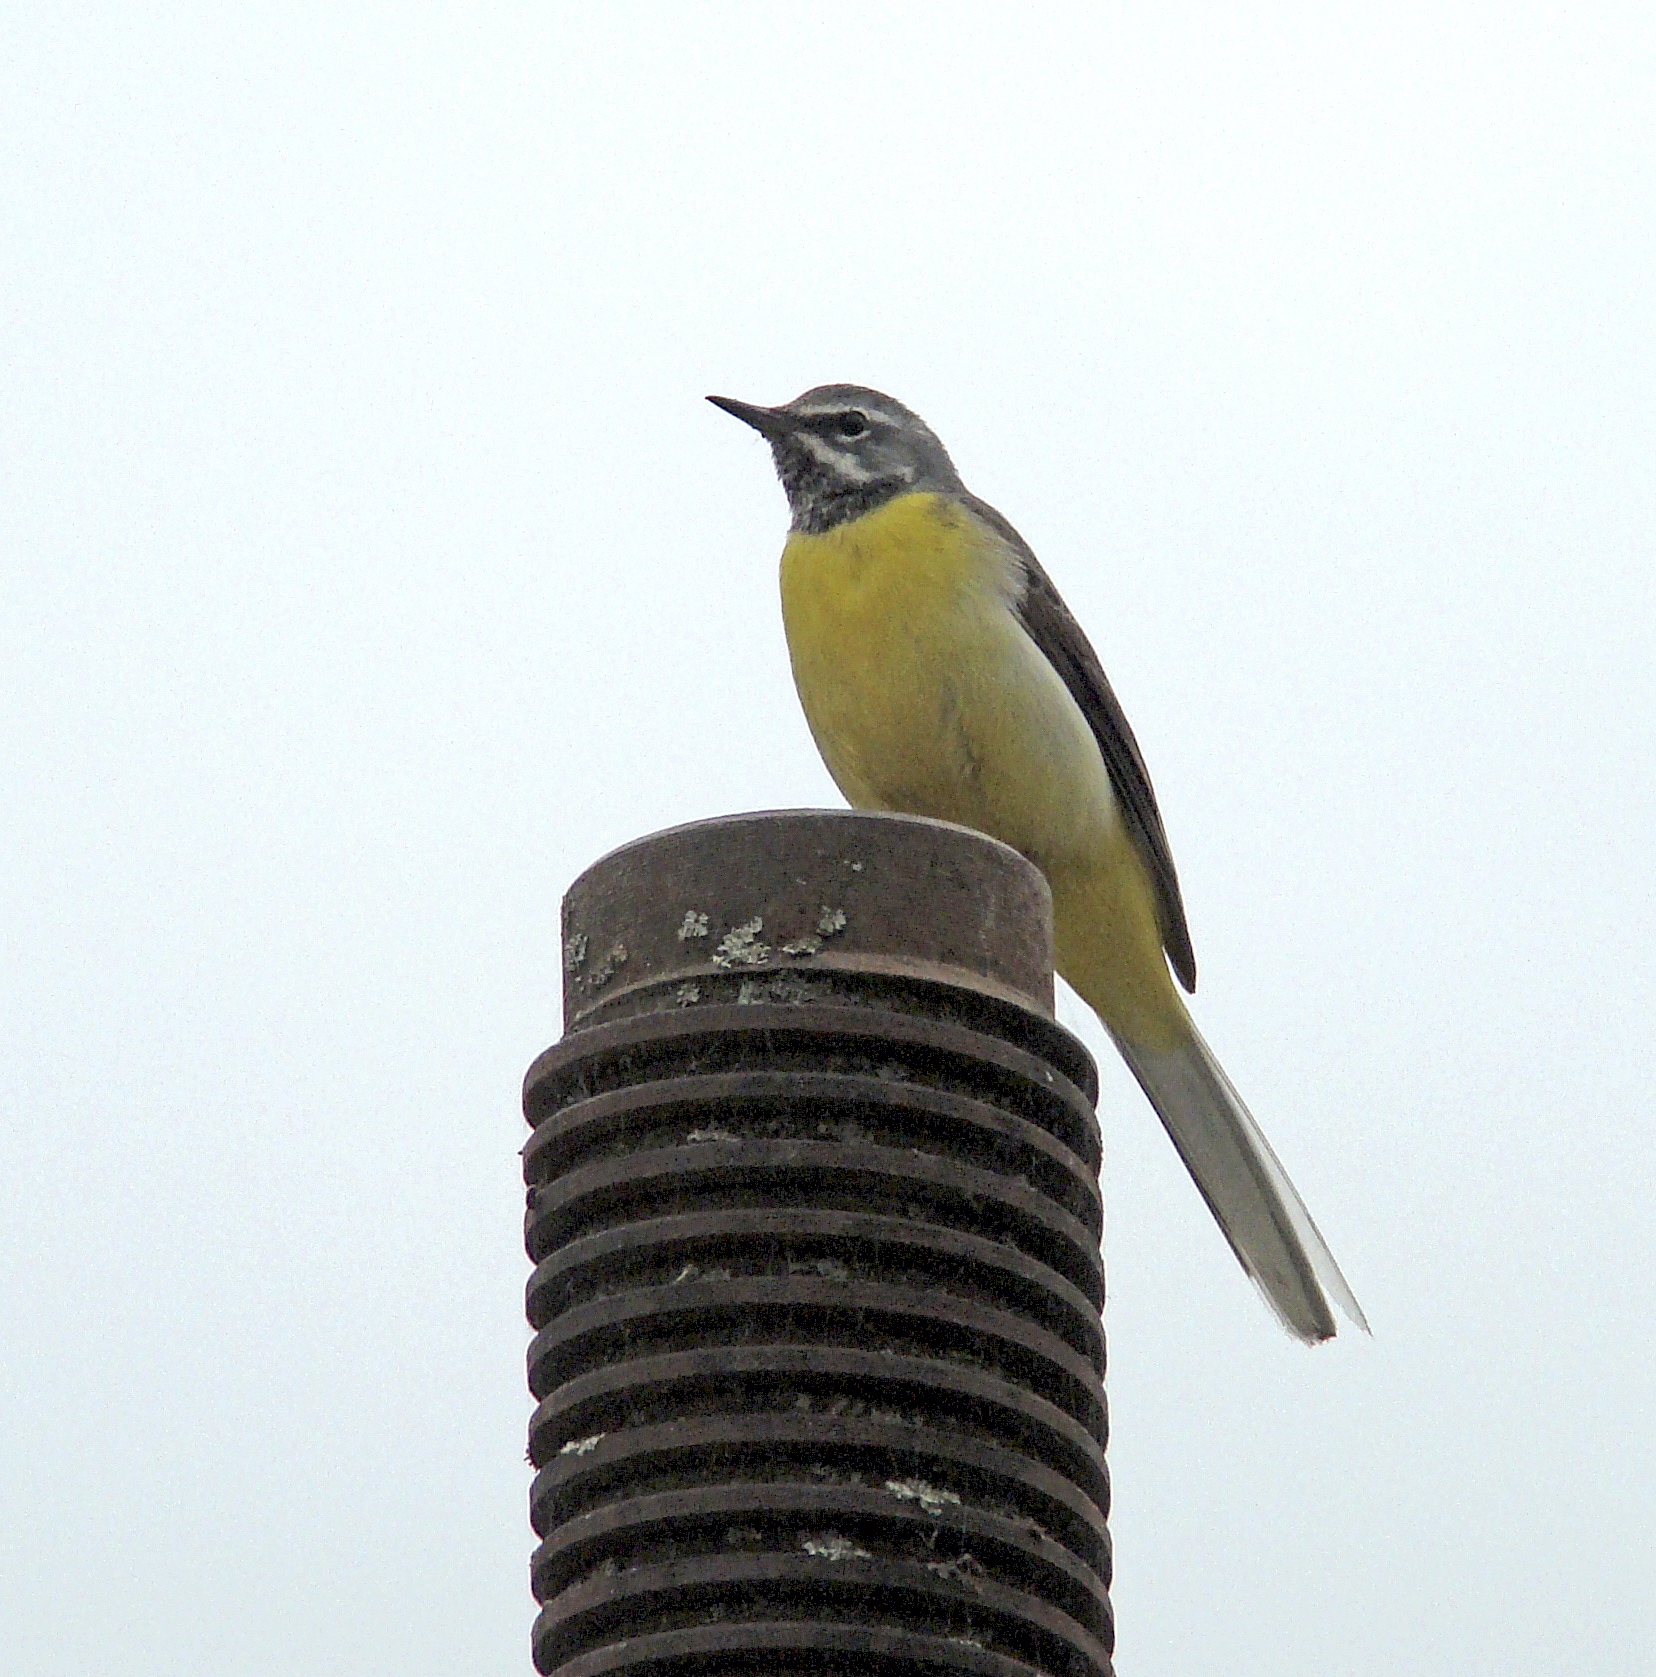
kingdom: Animalia
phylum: Chordata
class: Aves
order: Passeriformes
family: Motacillidae
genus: Motacilla
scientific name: Motacilla cinerea
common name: Grey wagtail
